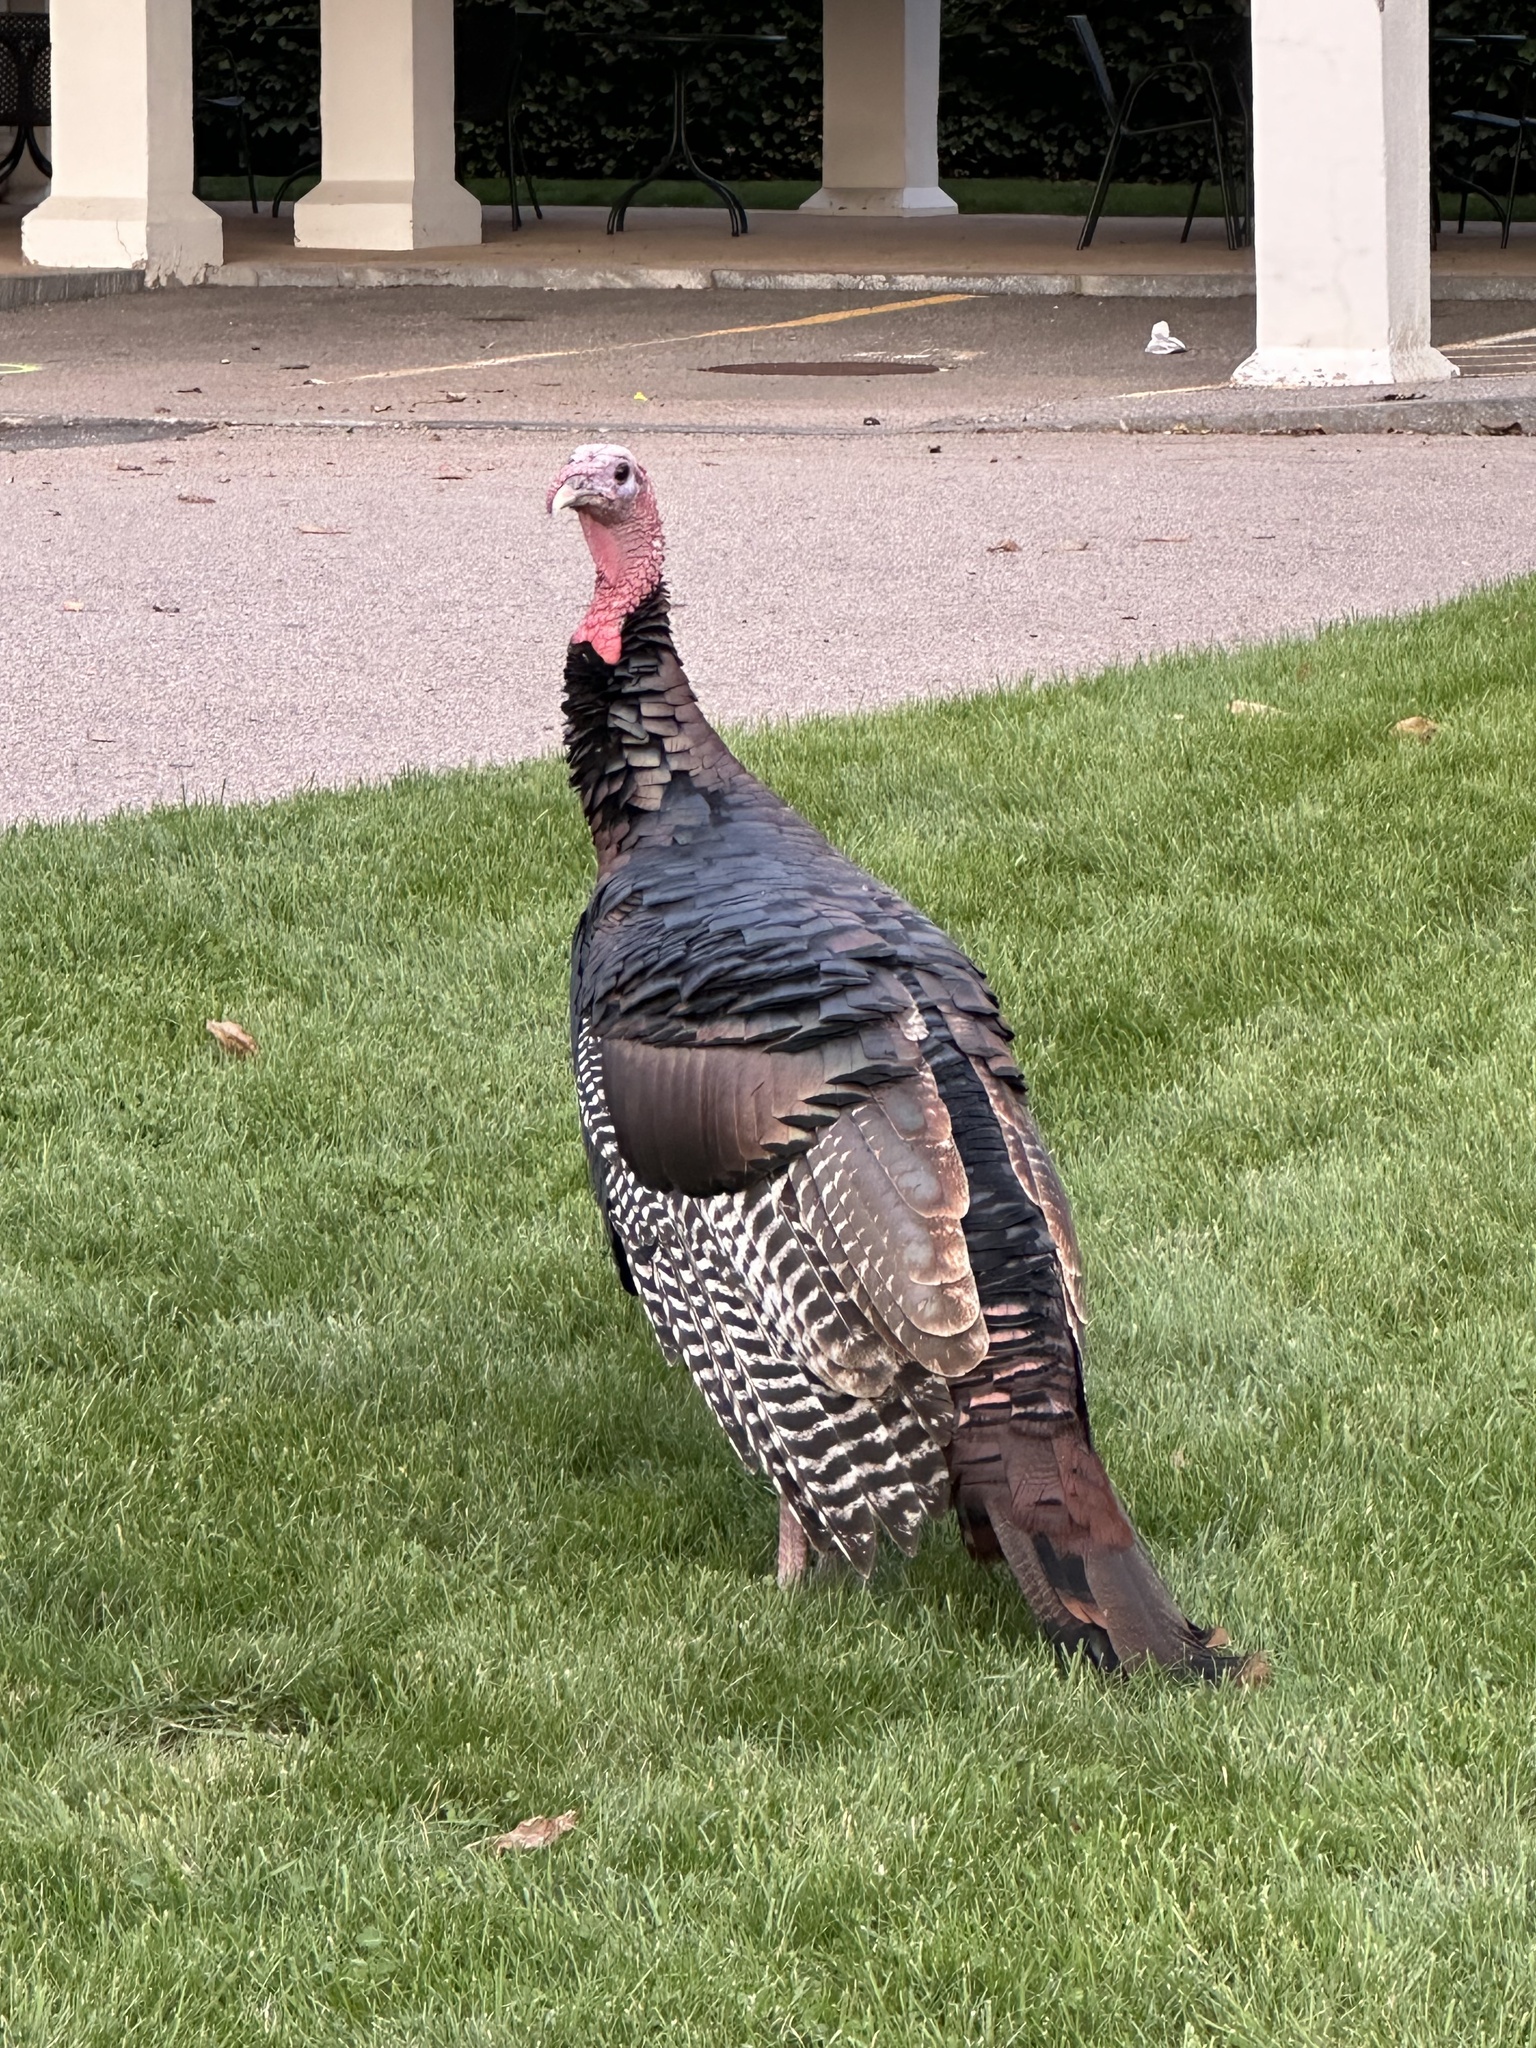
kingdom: Animalia
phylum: Chordata
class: Aves
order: Galliformes
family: Phasianidae
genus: Meleagris
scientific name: Meleagris gallopavo
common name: Wild turkey
